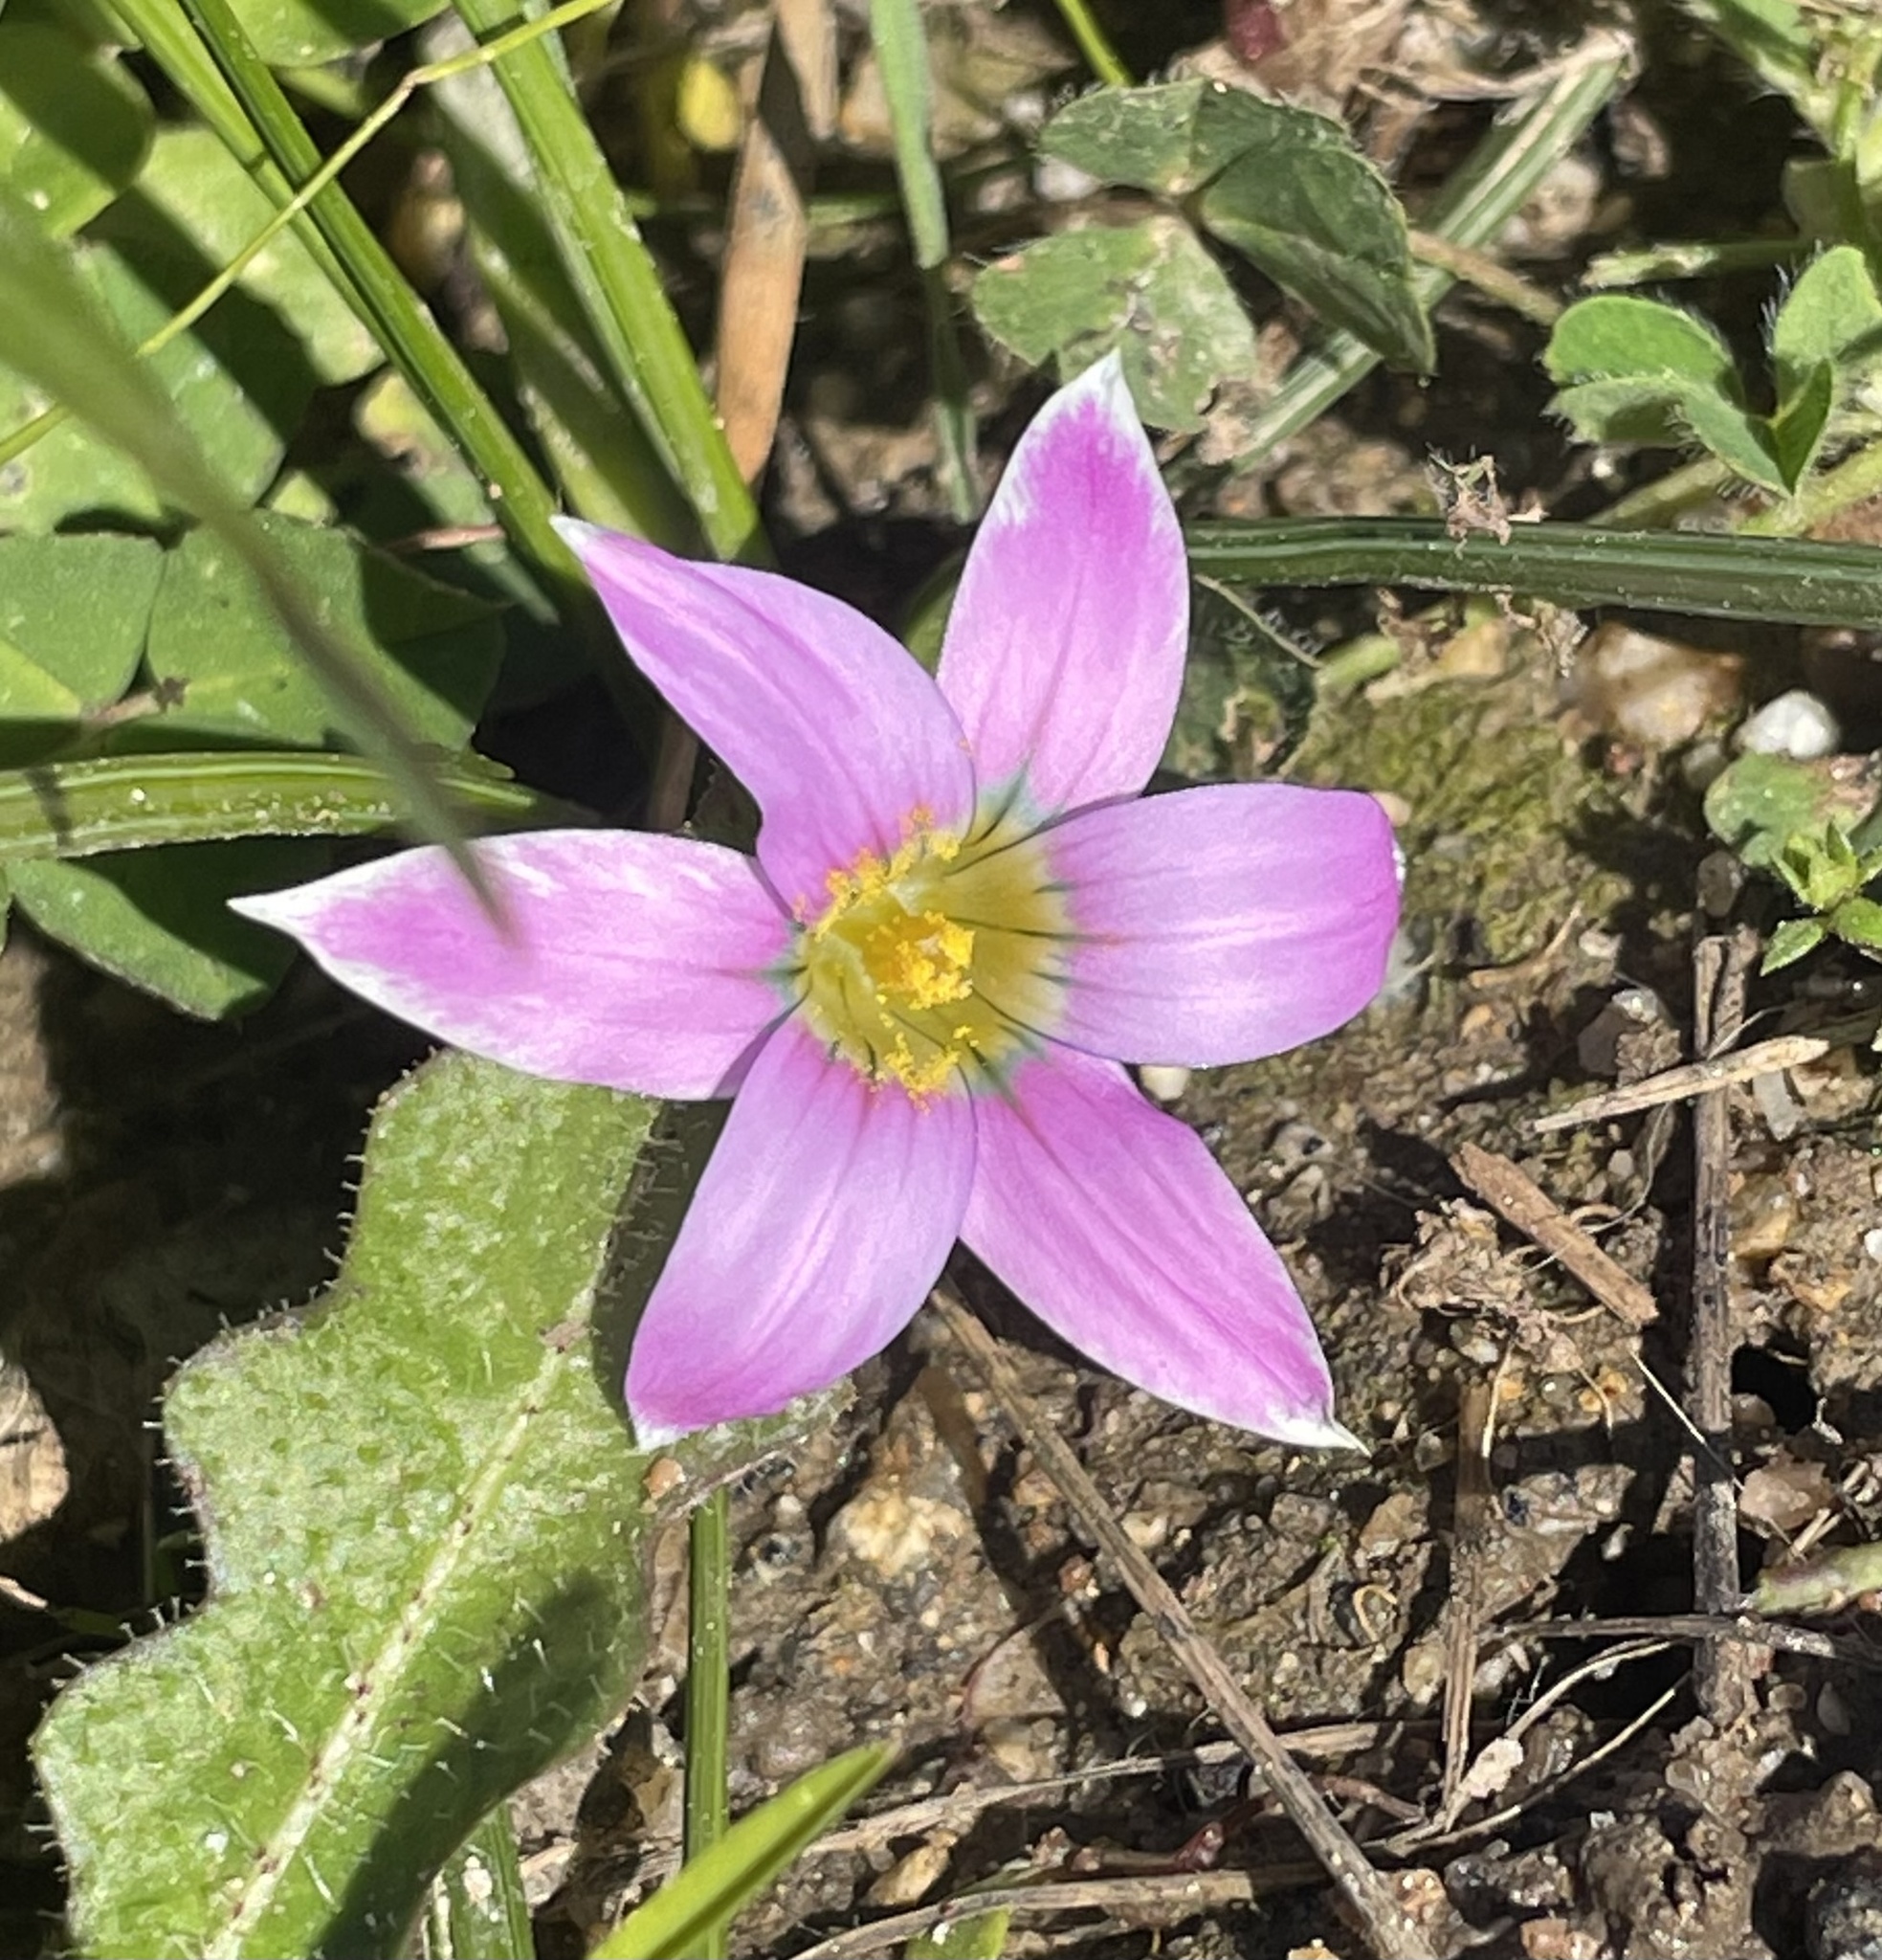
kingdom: Plantae
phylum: Tracheophyta
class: Liliopsida
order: Asparagales
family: Iridaceae
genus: Romulea
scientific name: Romulea rosea
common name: Oniongrass
